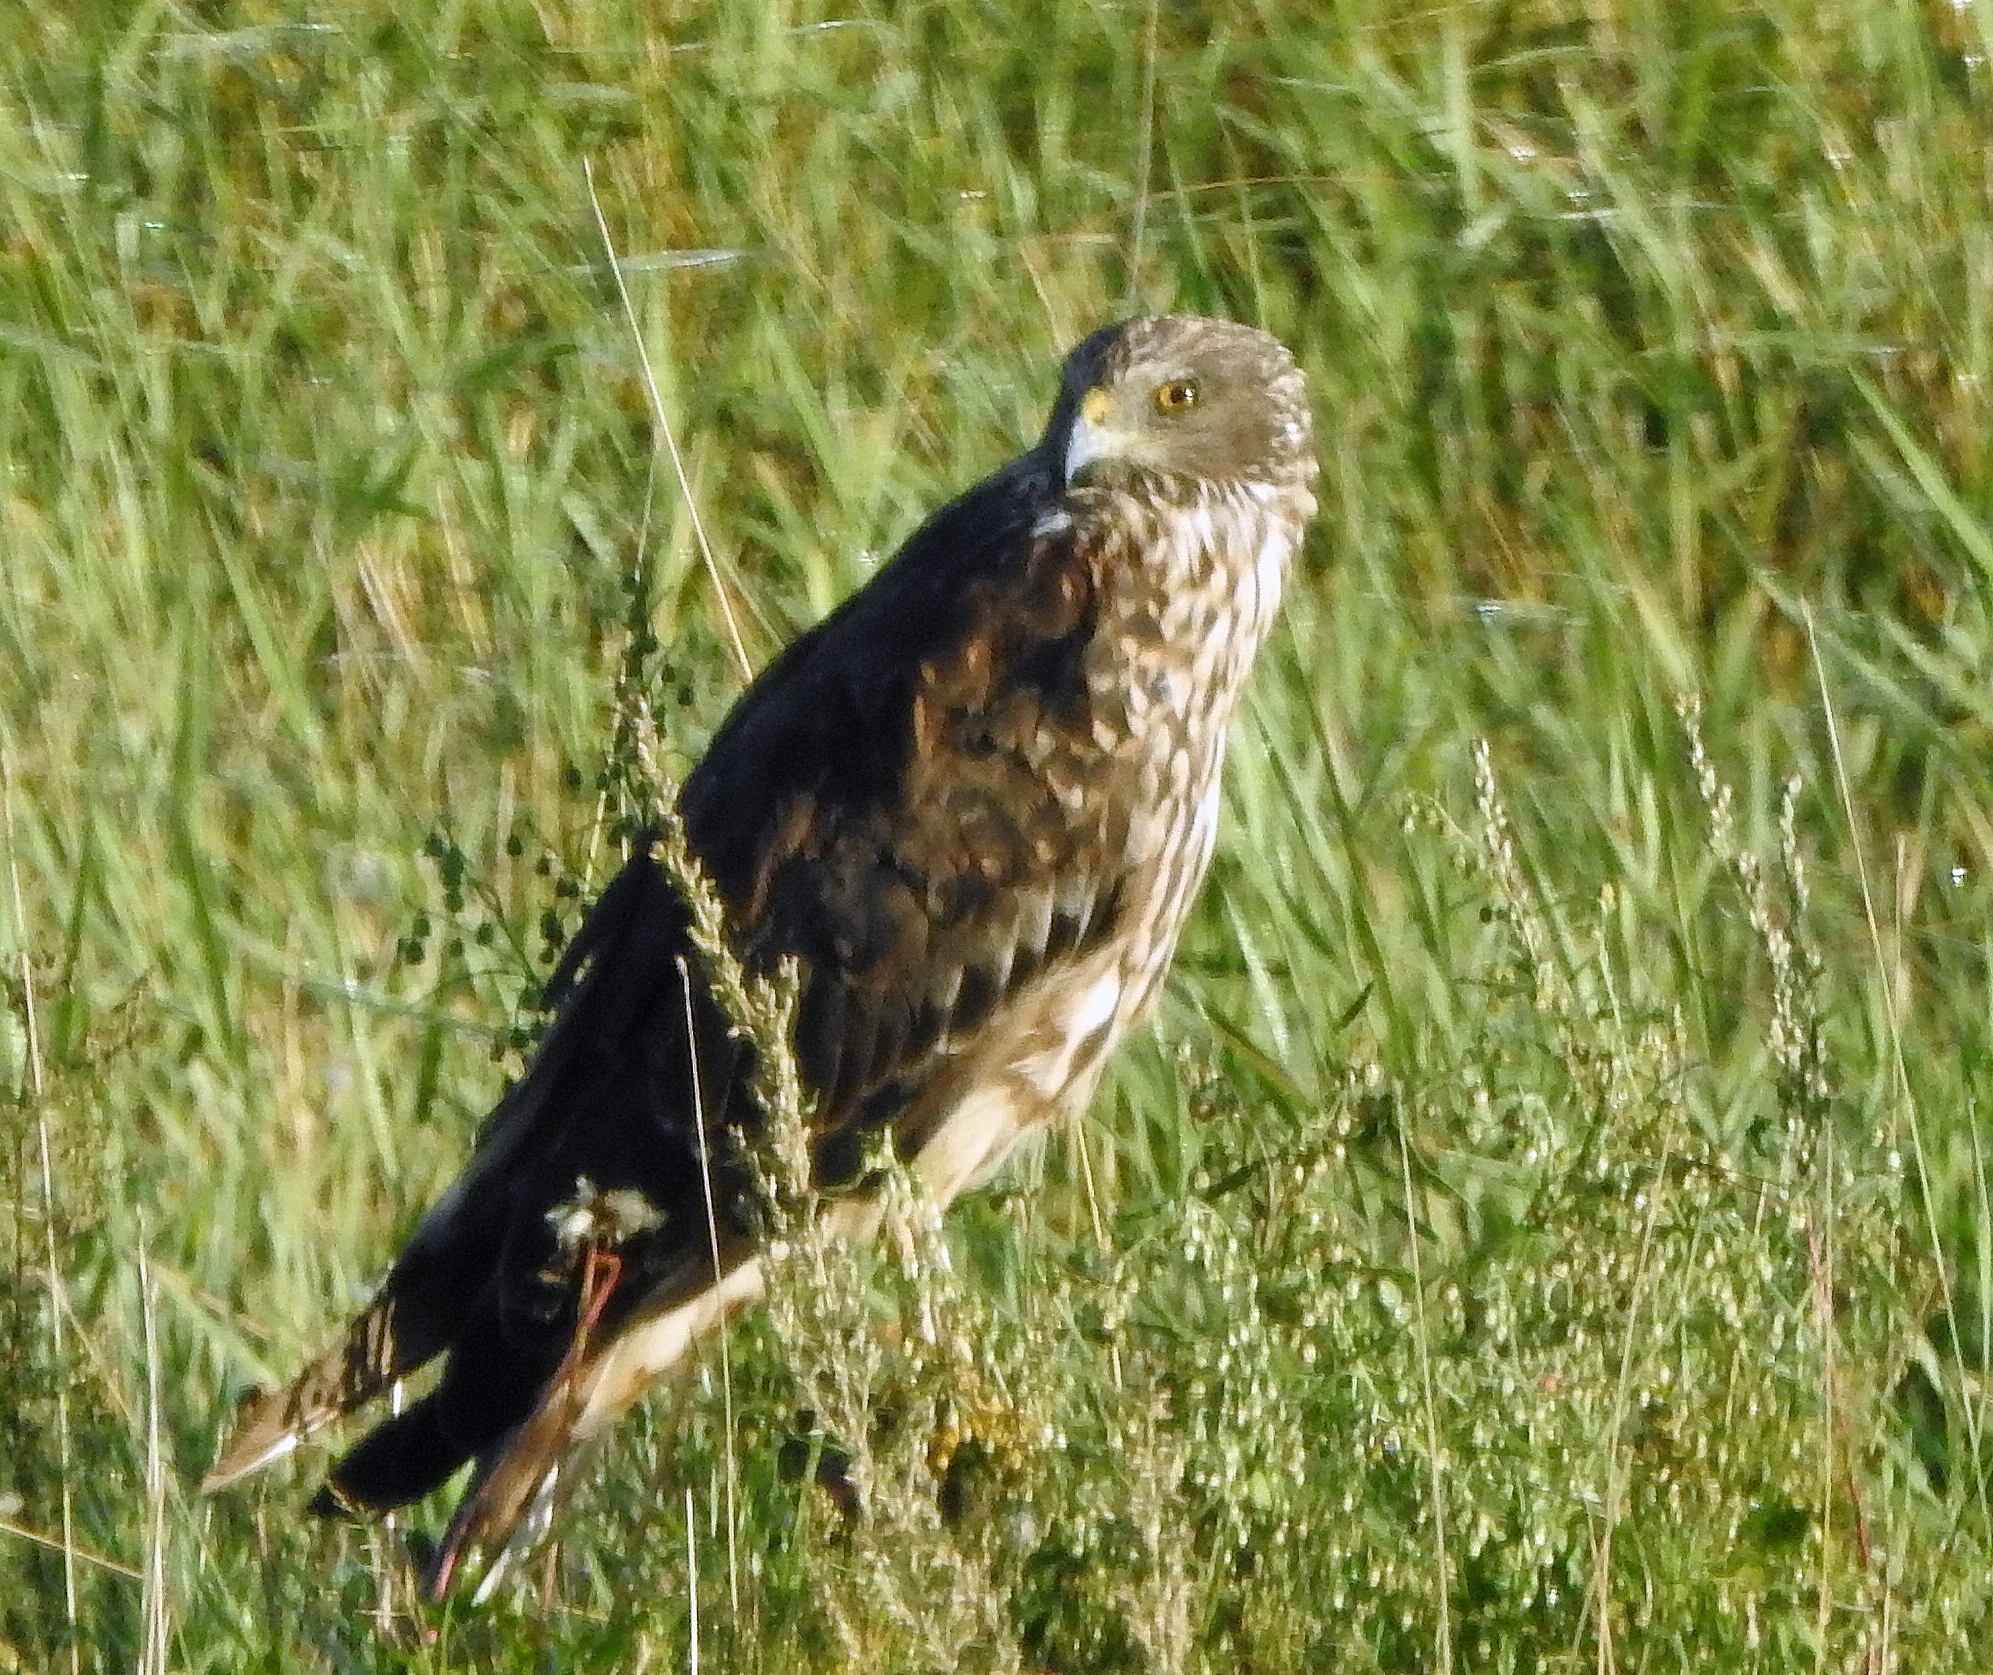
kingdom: Animalia
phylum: Chordata
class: Aves
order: Accipitriformes
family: Accipitridae
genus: Circus
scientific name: Circus spilonotus
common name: Eastern marsh-harrier
